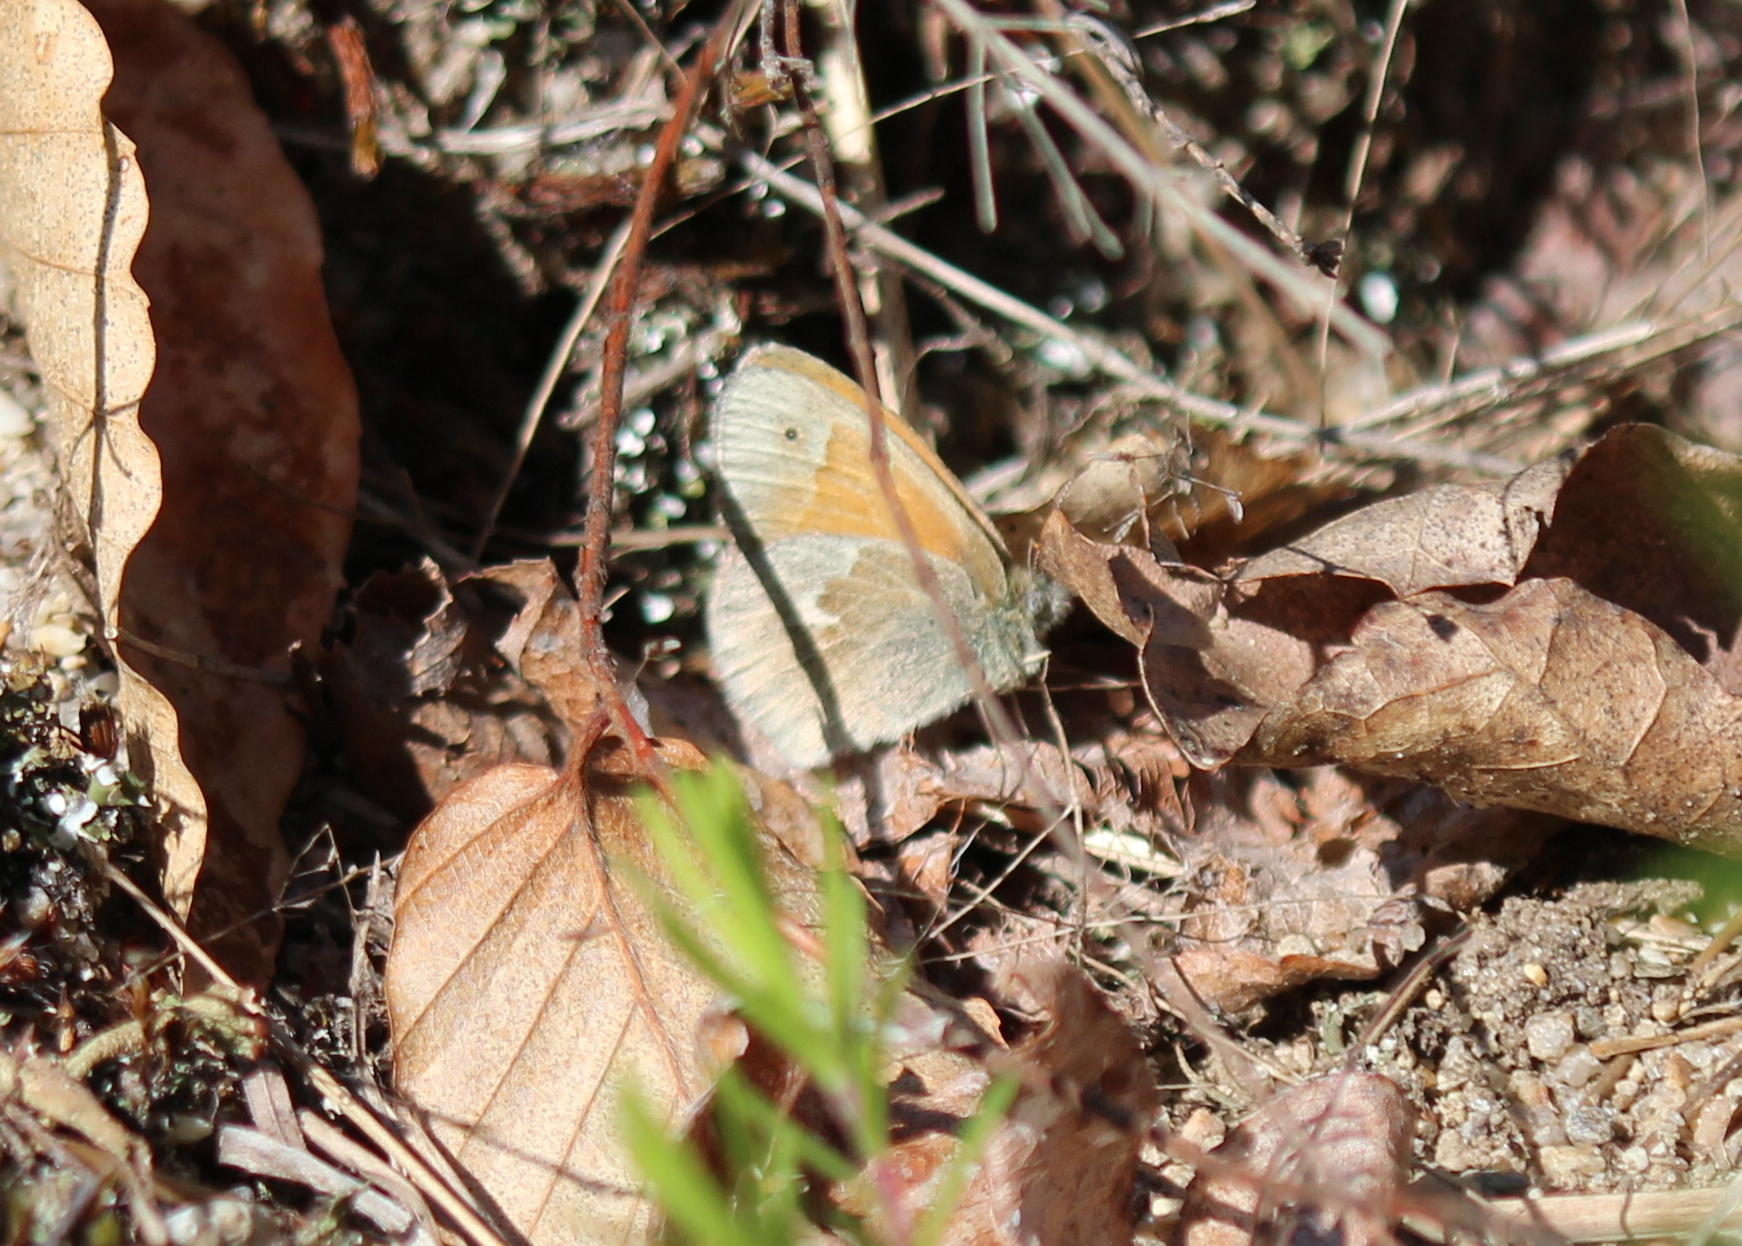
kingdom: Animalia
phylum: Arthropoda
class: Insecta
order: Lepidoptera
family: Nymphalidae
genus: Coenonympha
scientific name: Coenonympha california
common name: Common ringlet
